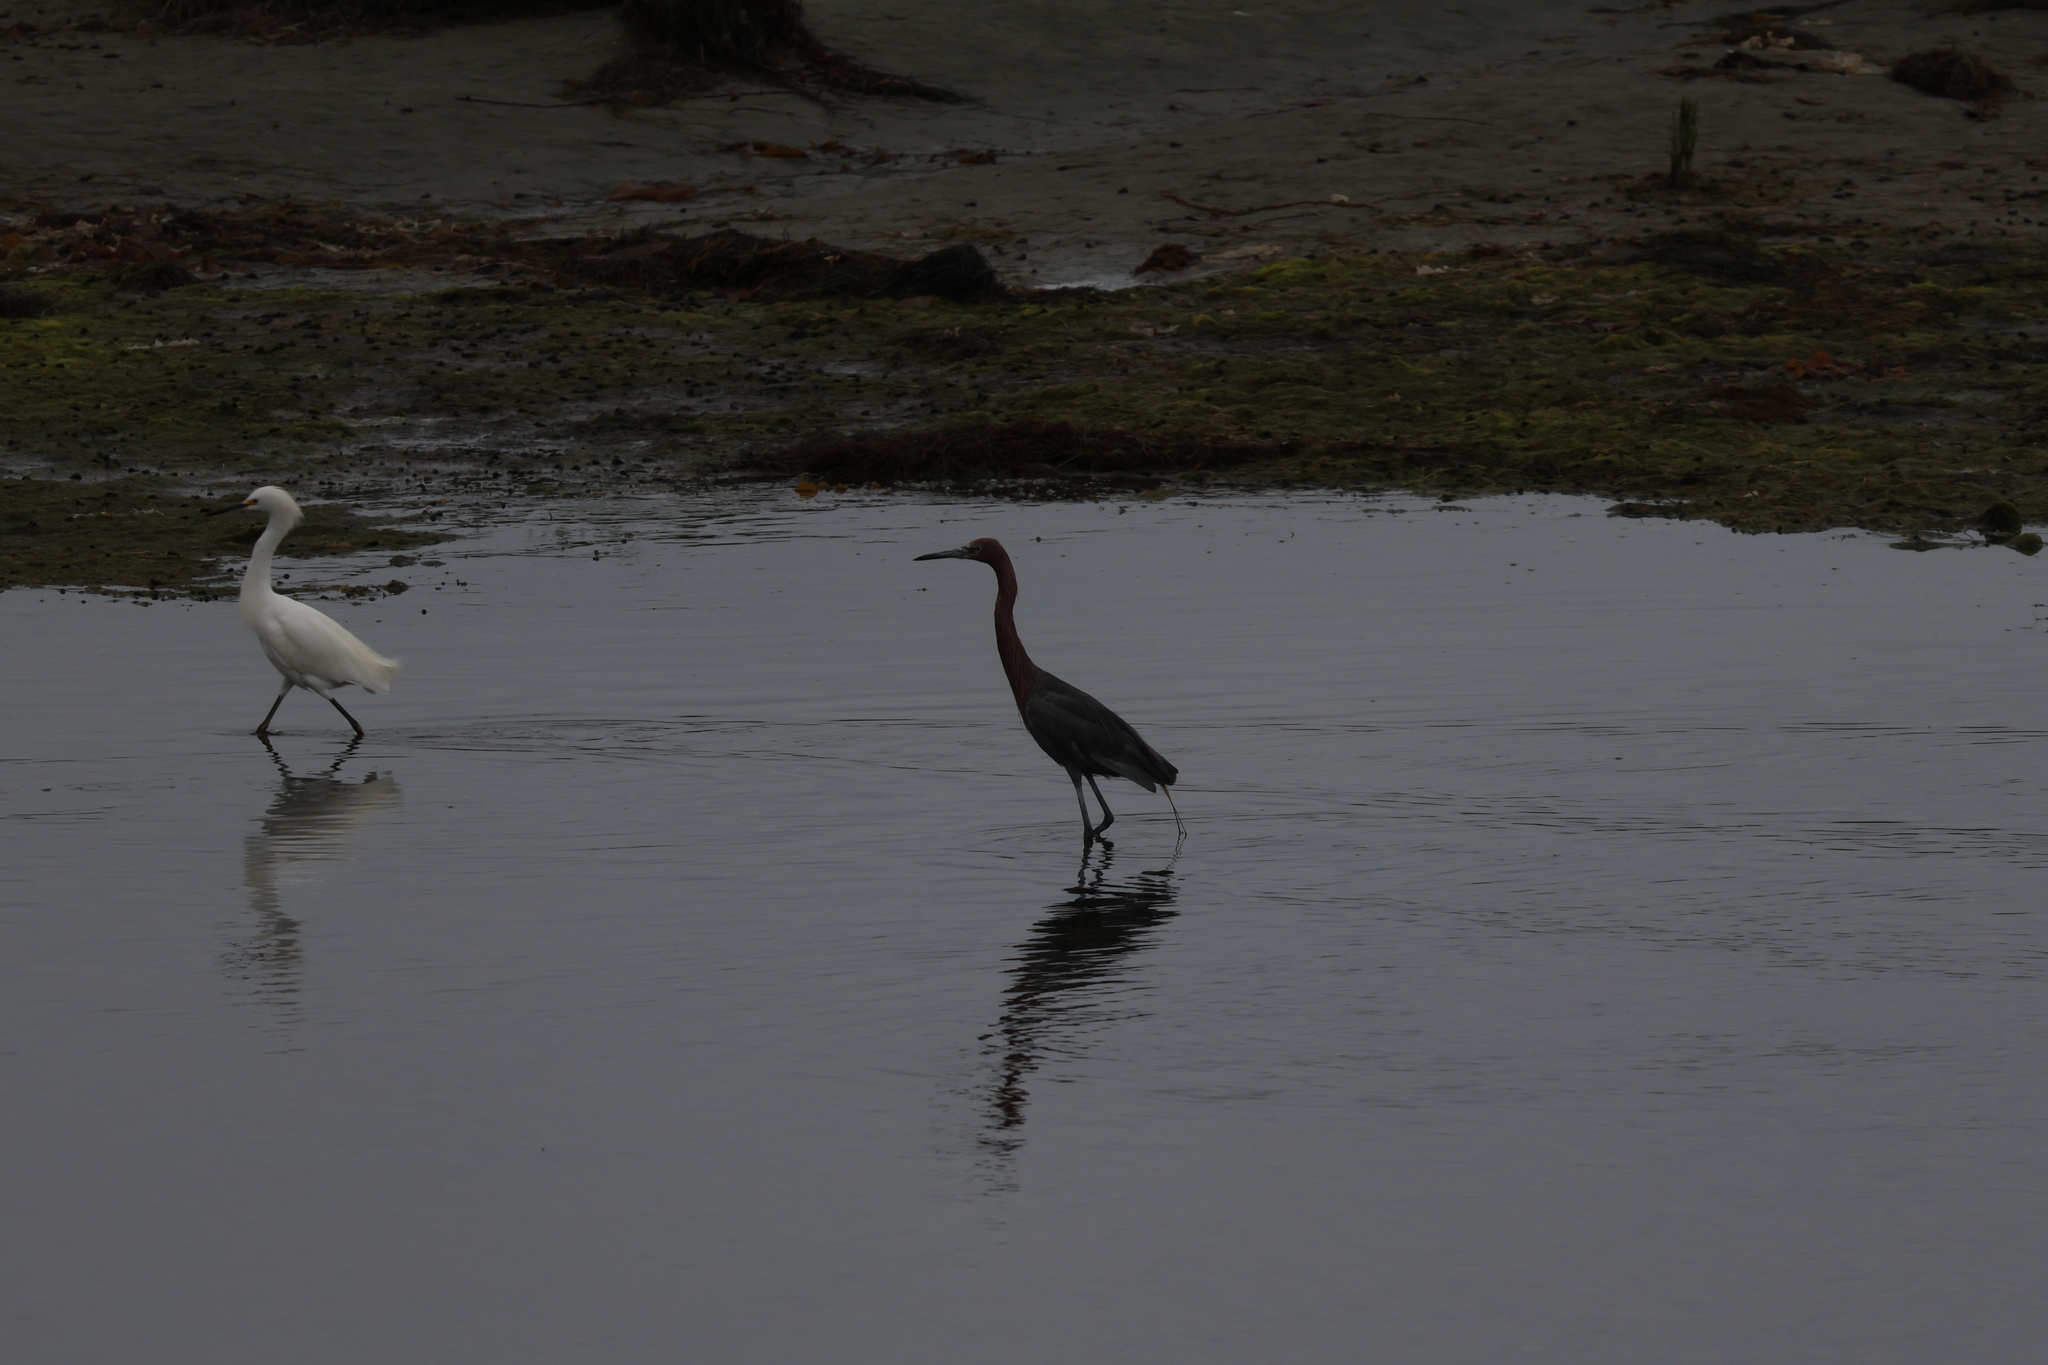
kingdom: Animalia
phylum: Chordata
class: Aves
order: Pelecaniformes
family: Ardeidae
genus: Egretta
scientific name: Egretta rufescens
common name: Reddish egret
